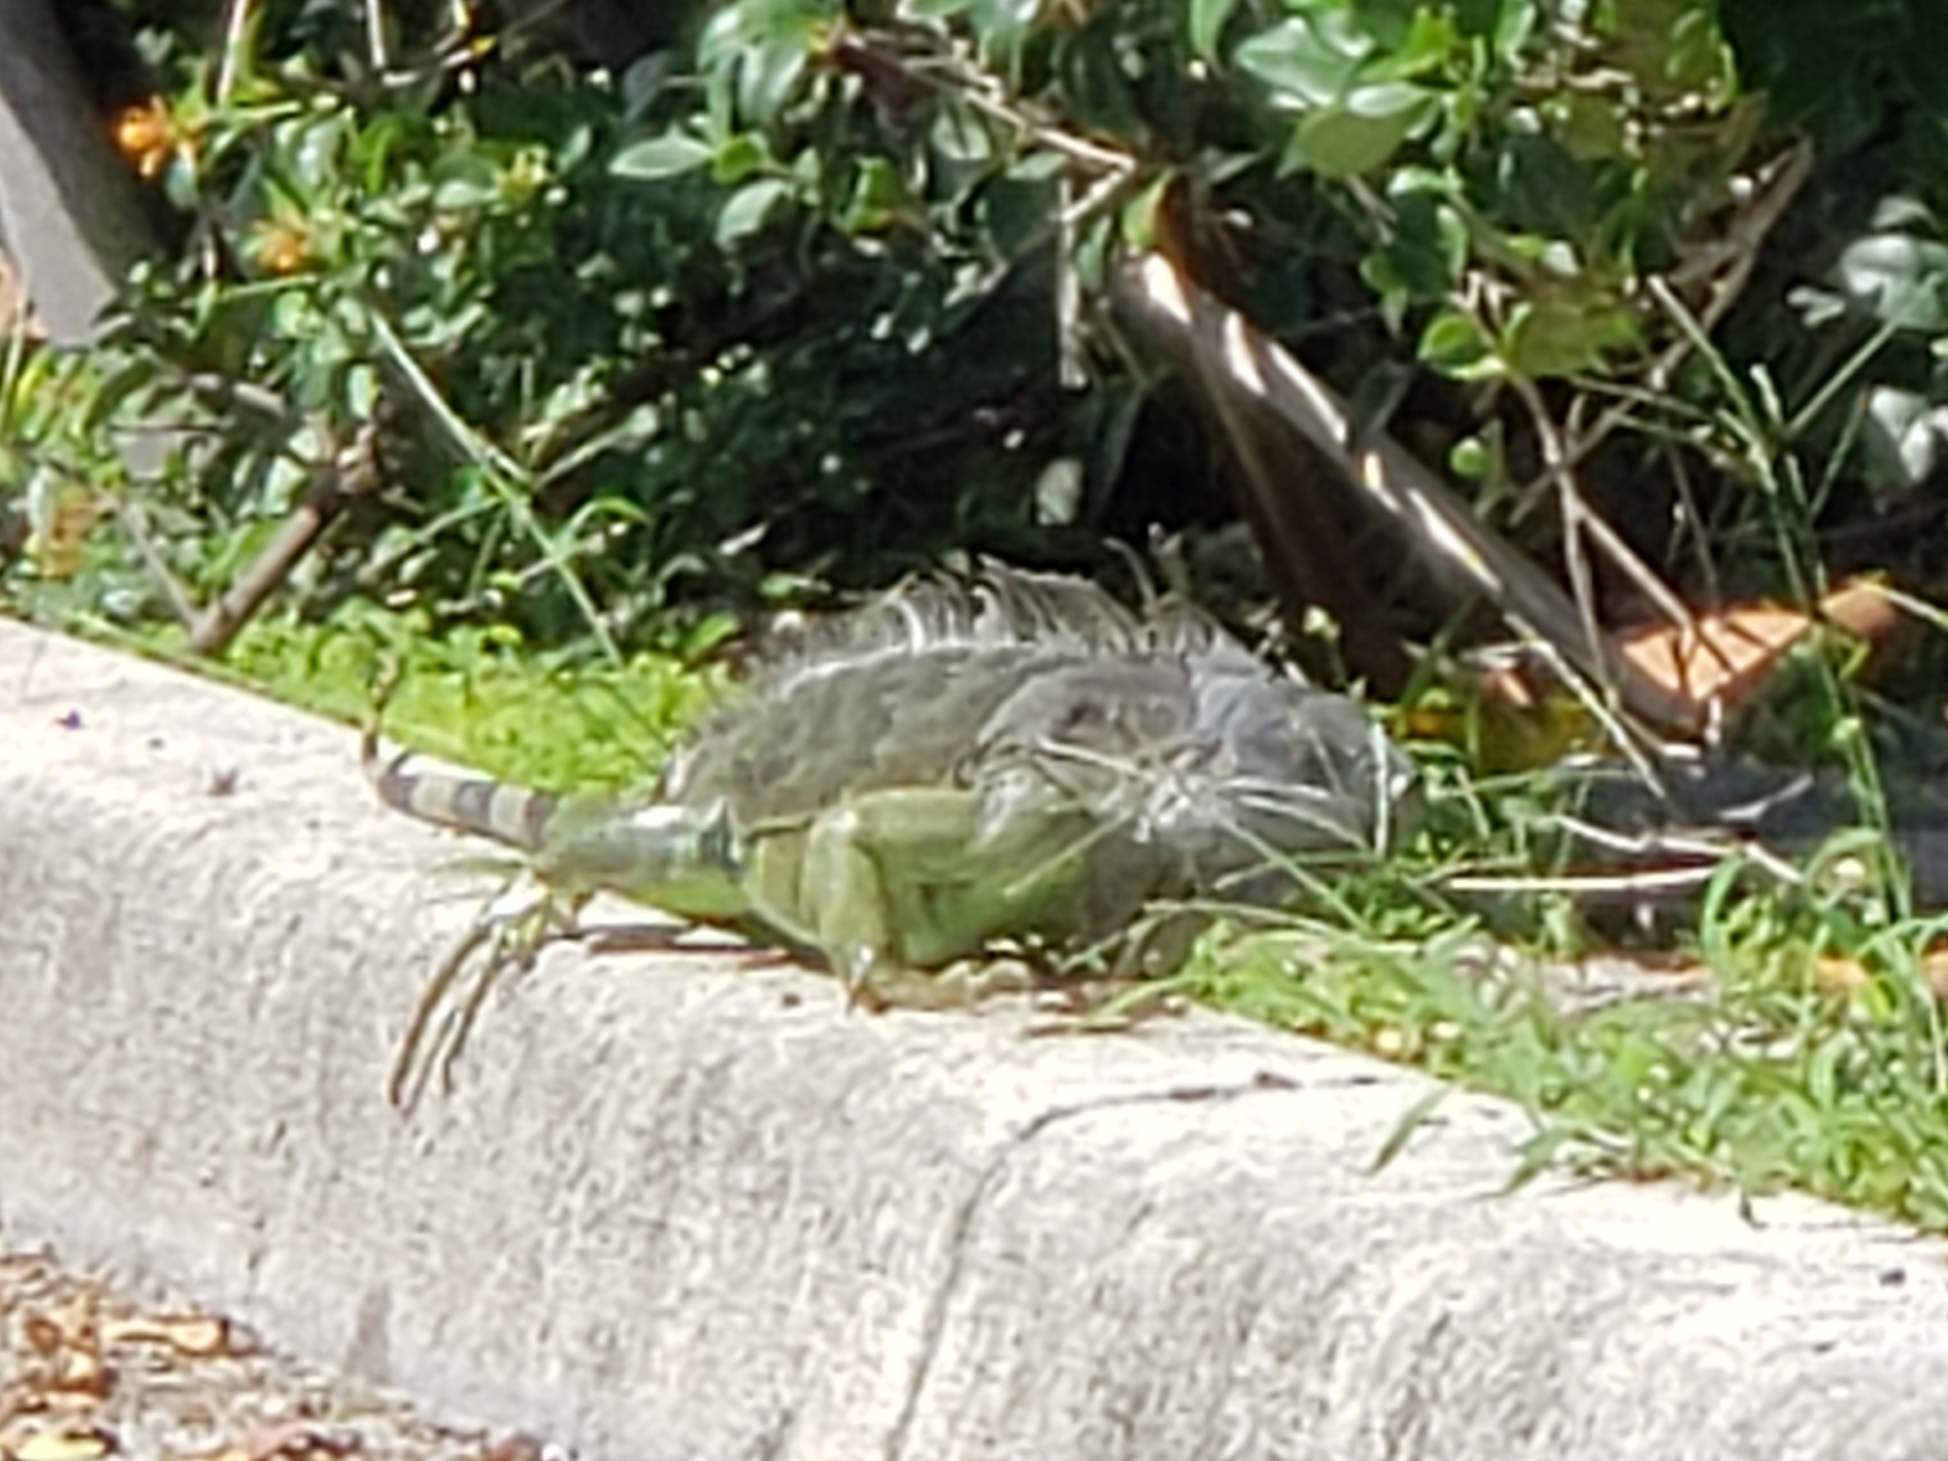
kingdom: Animalia
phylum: Chordata
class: Squamata
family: Iguanidae
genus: Iguana
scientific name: Iguana iguana
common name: Green iguana
